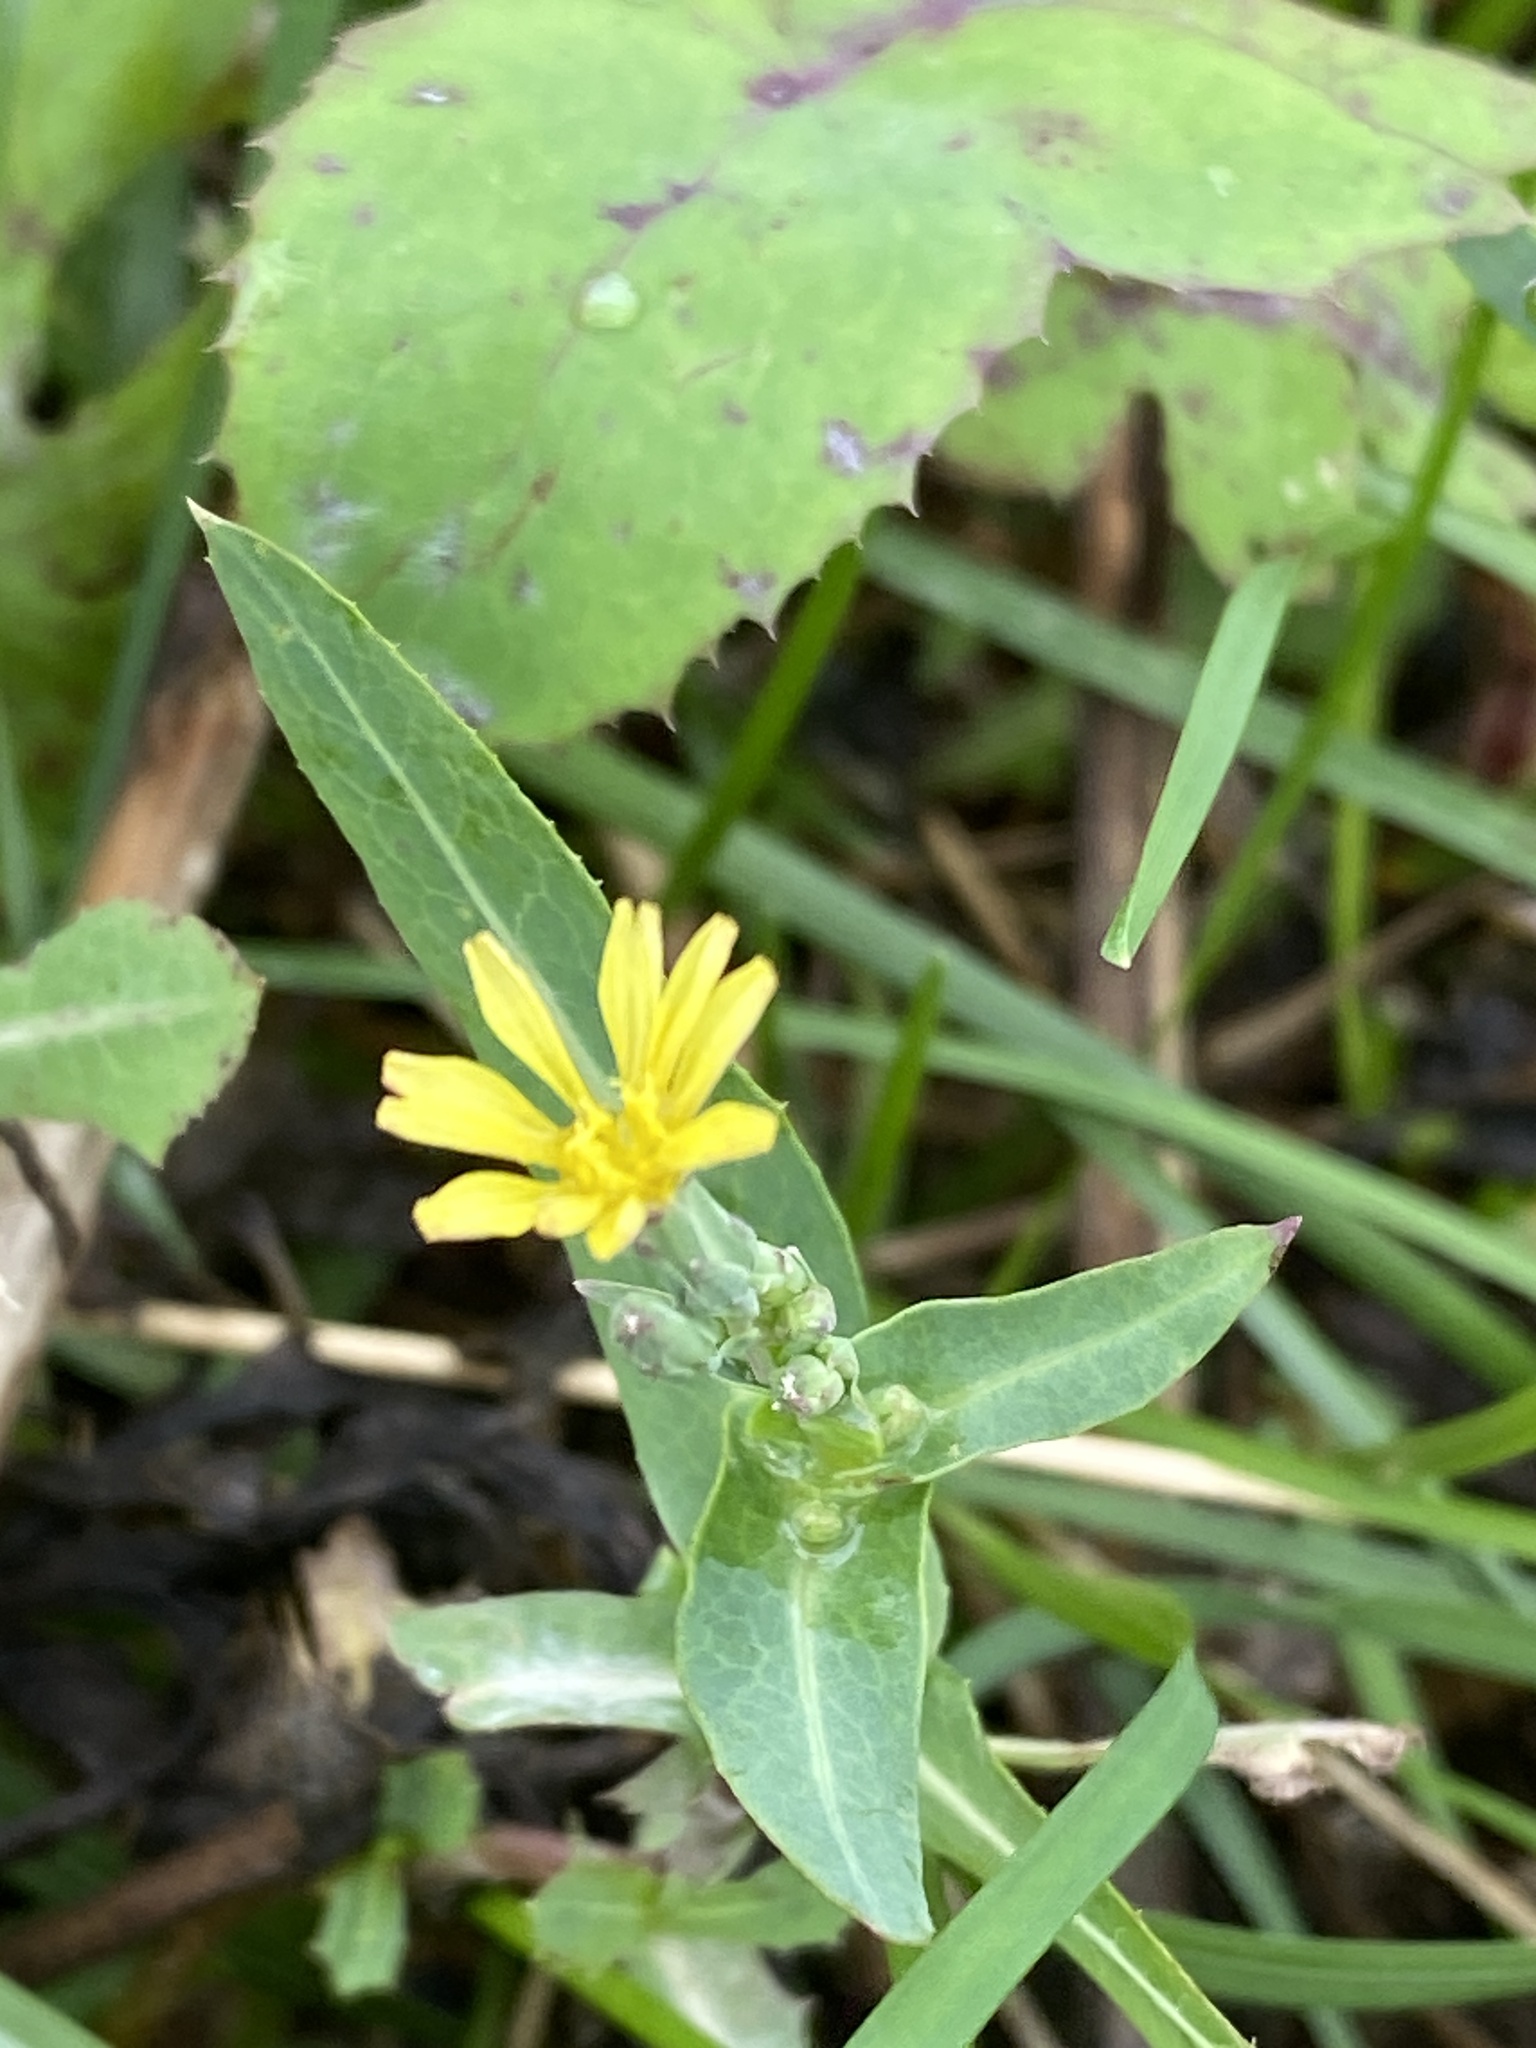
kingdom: Plantae
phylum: Tracheophyta
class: Magnoliopsida
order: Asterales
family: Asteraceae
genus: Mycelis
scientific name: Mycelis muralis
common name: Wall lettuce
